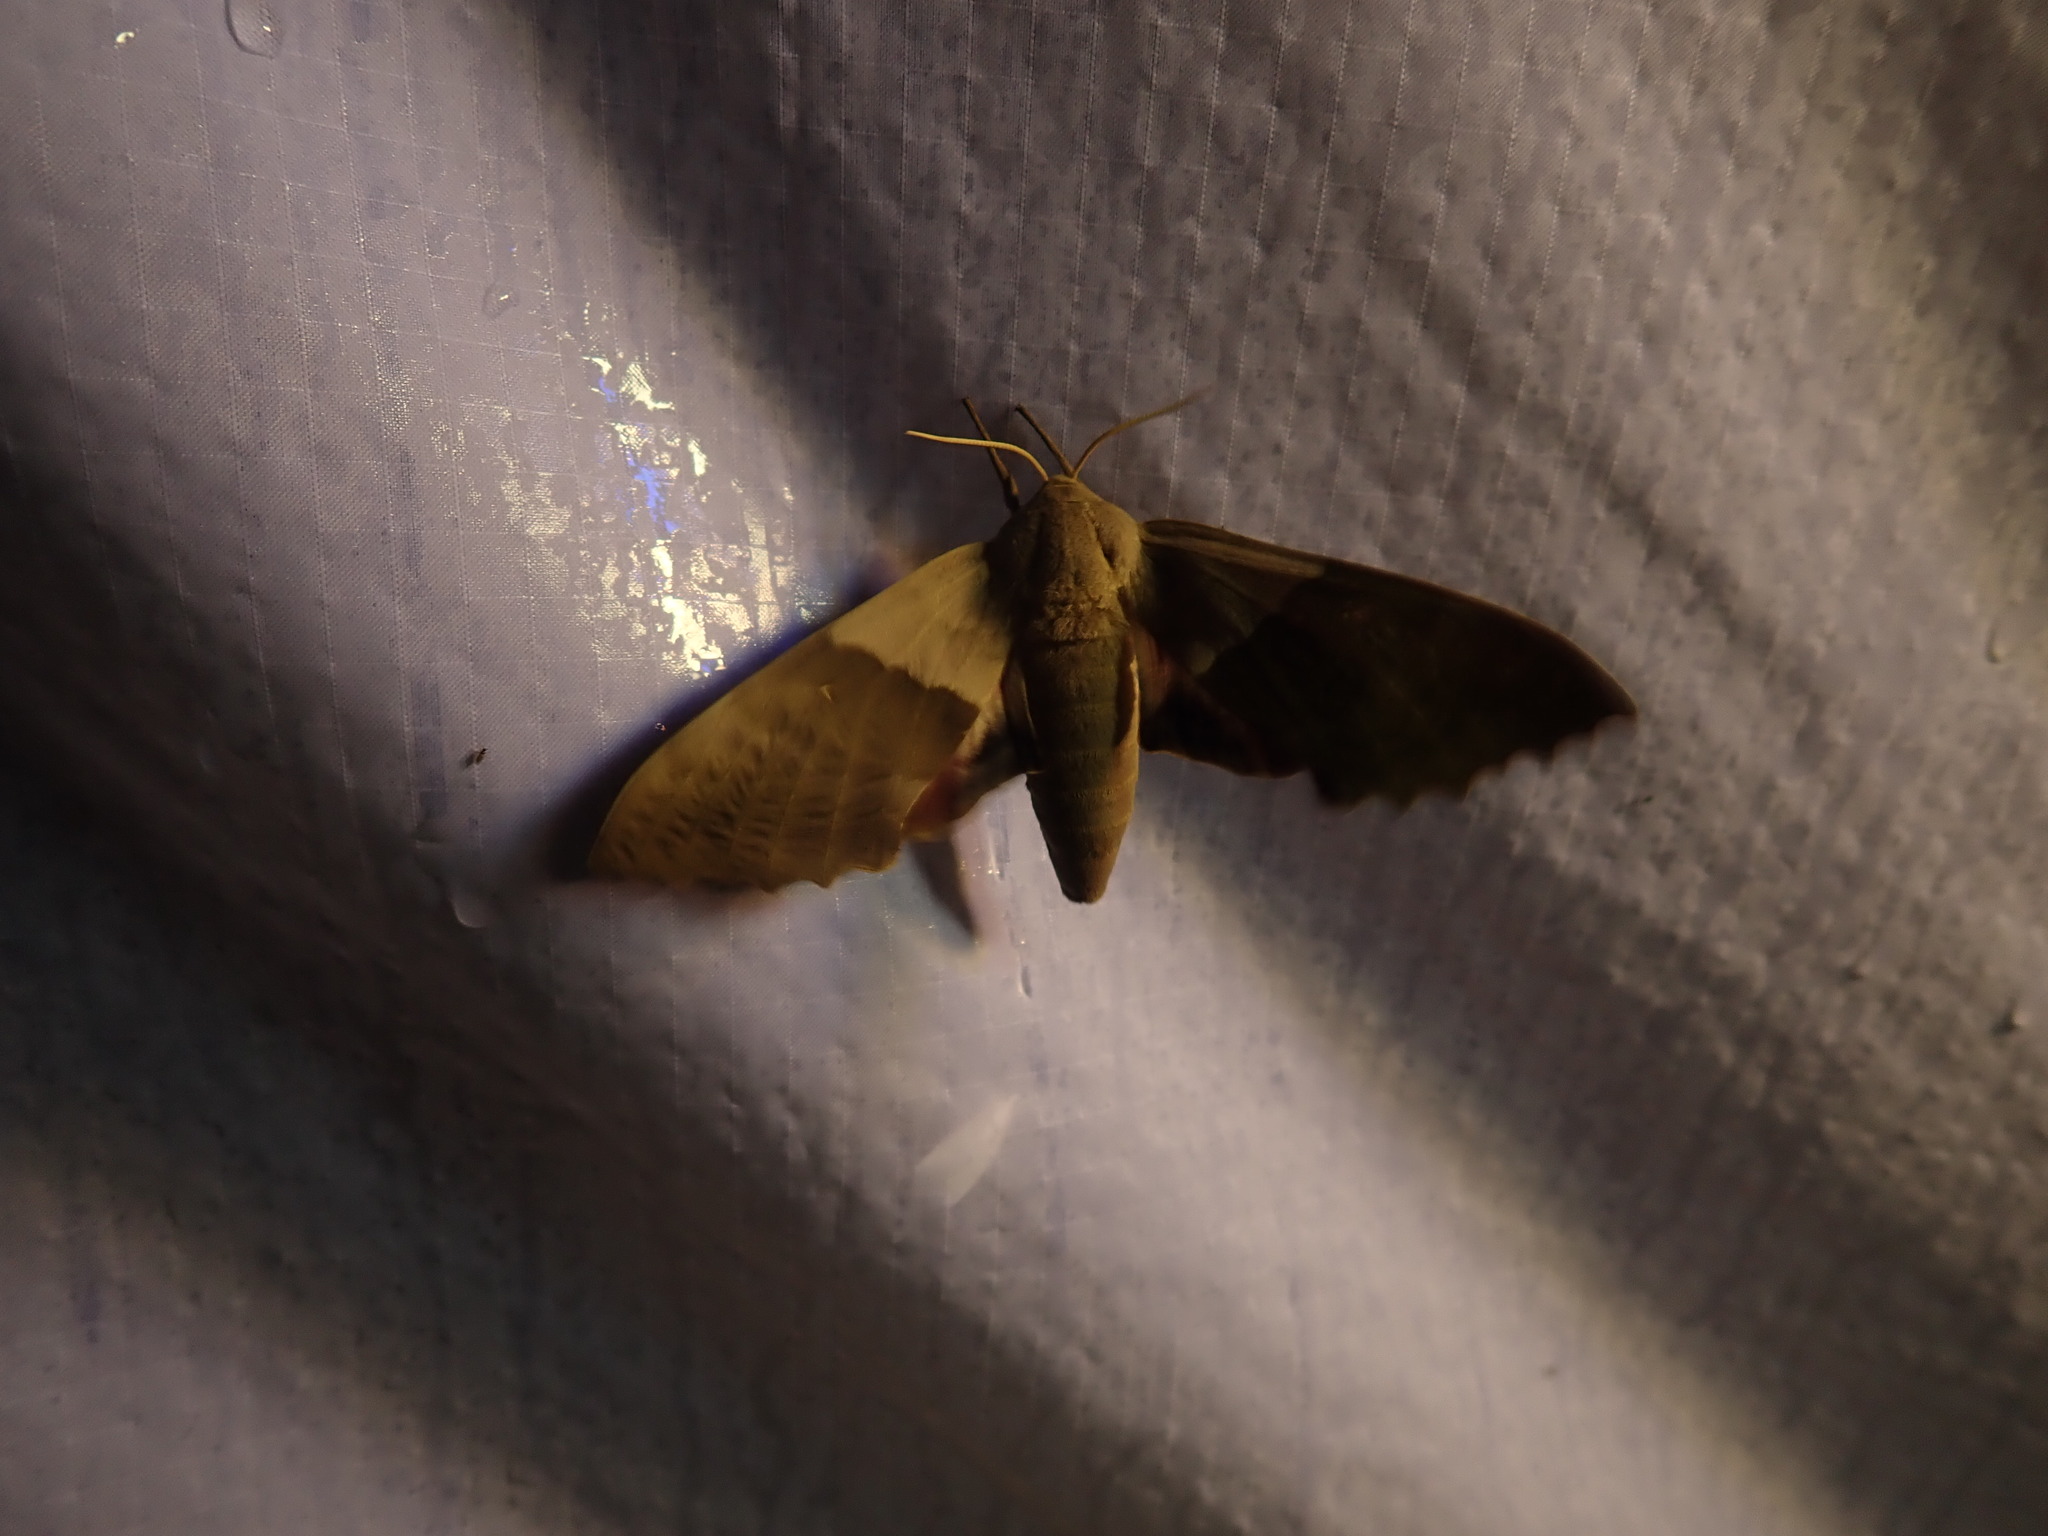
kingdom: Animalia
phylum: Arthropoda
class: Insecta
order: Lepidoptera
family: Sphingidae
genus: Pachysphinx
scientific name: Pachysphinx modesta
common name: Big poplar sphinx
